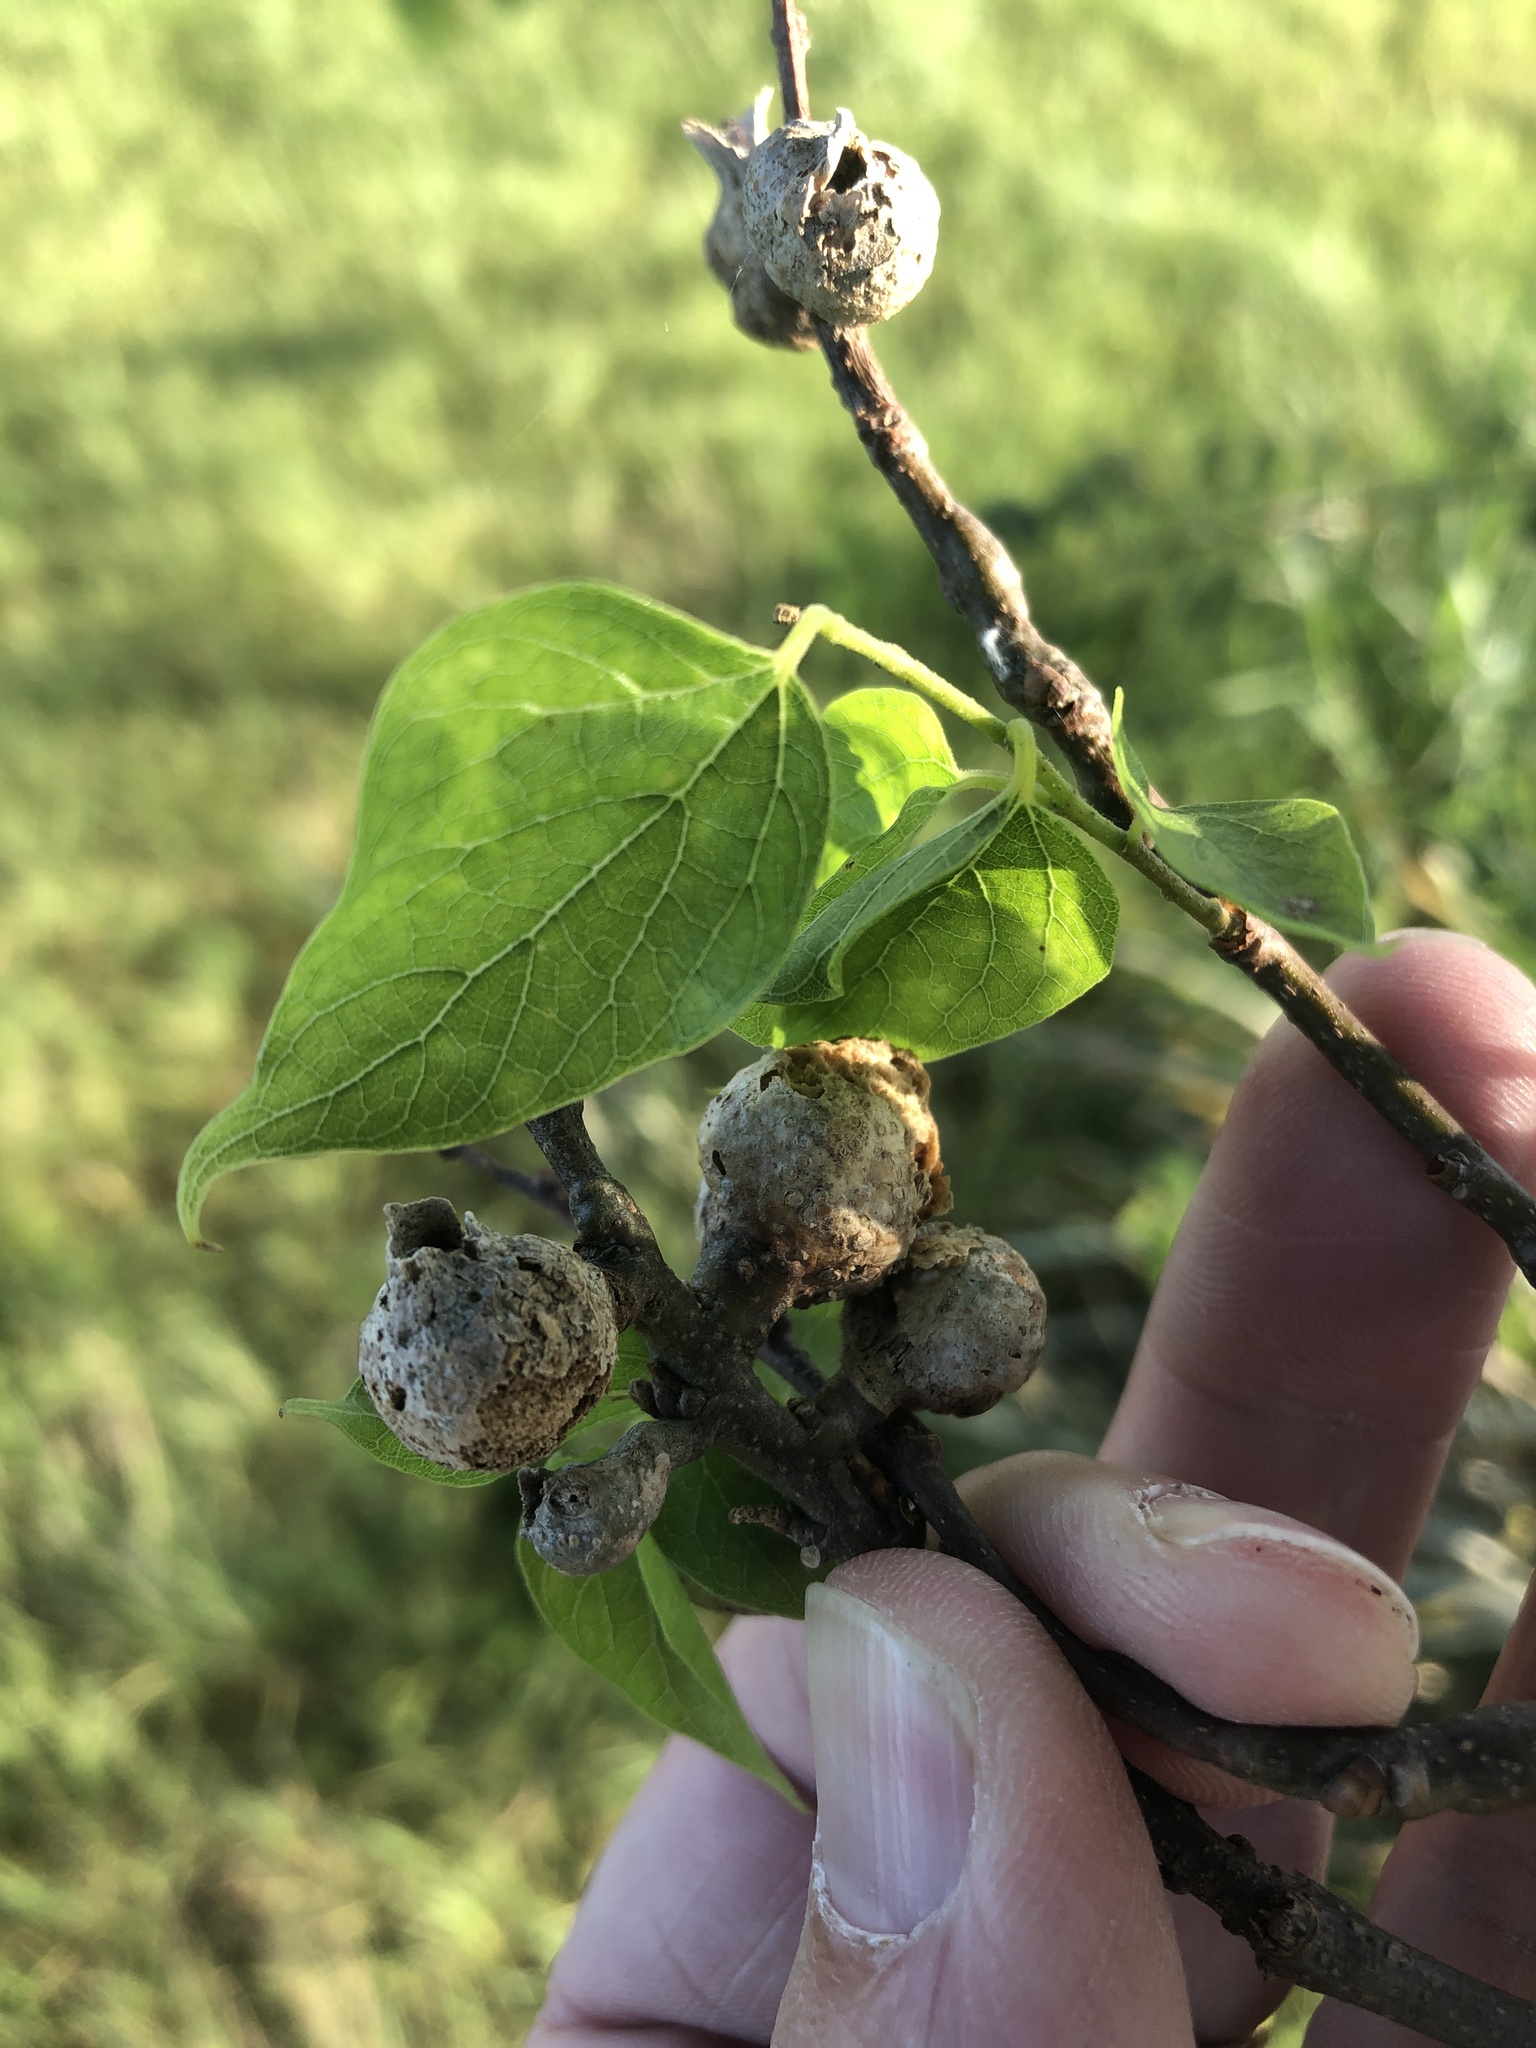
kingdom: Animalia
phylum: Arthropoda
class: Insecta
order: Hemiptera
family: Aphalaridae
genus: Pachypsylla
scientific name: Pachypsylla venusta
